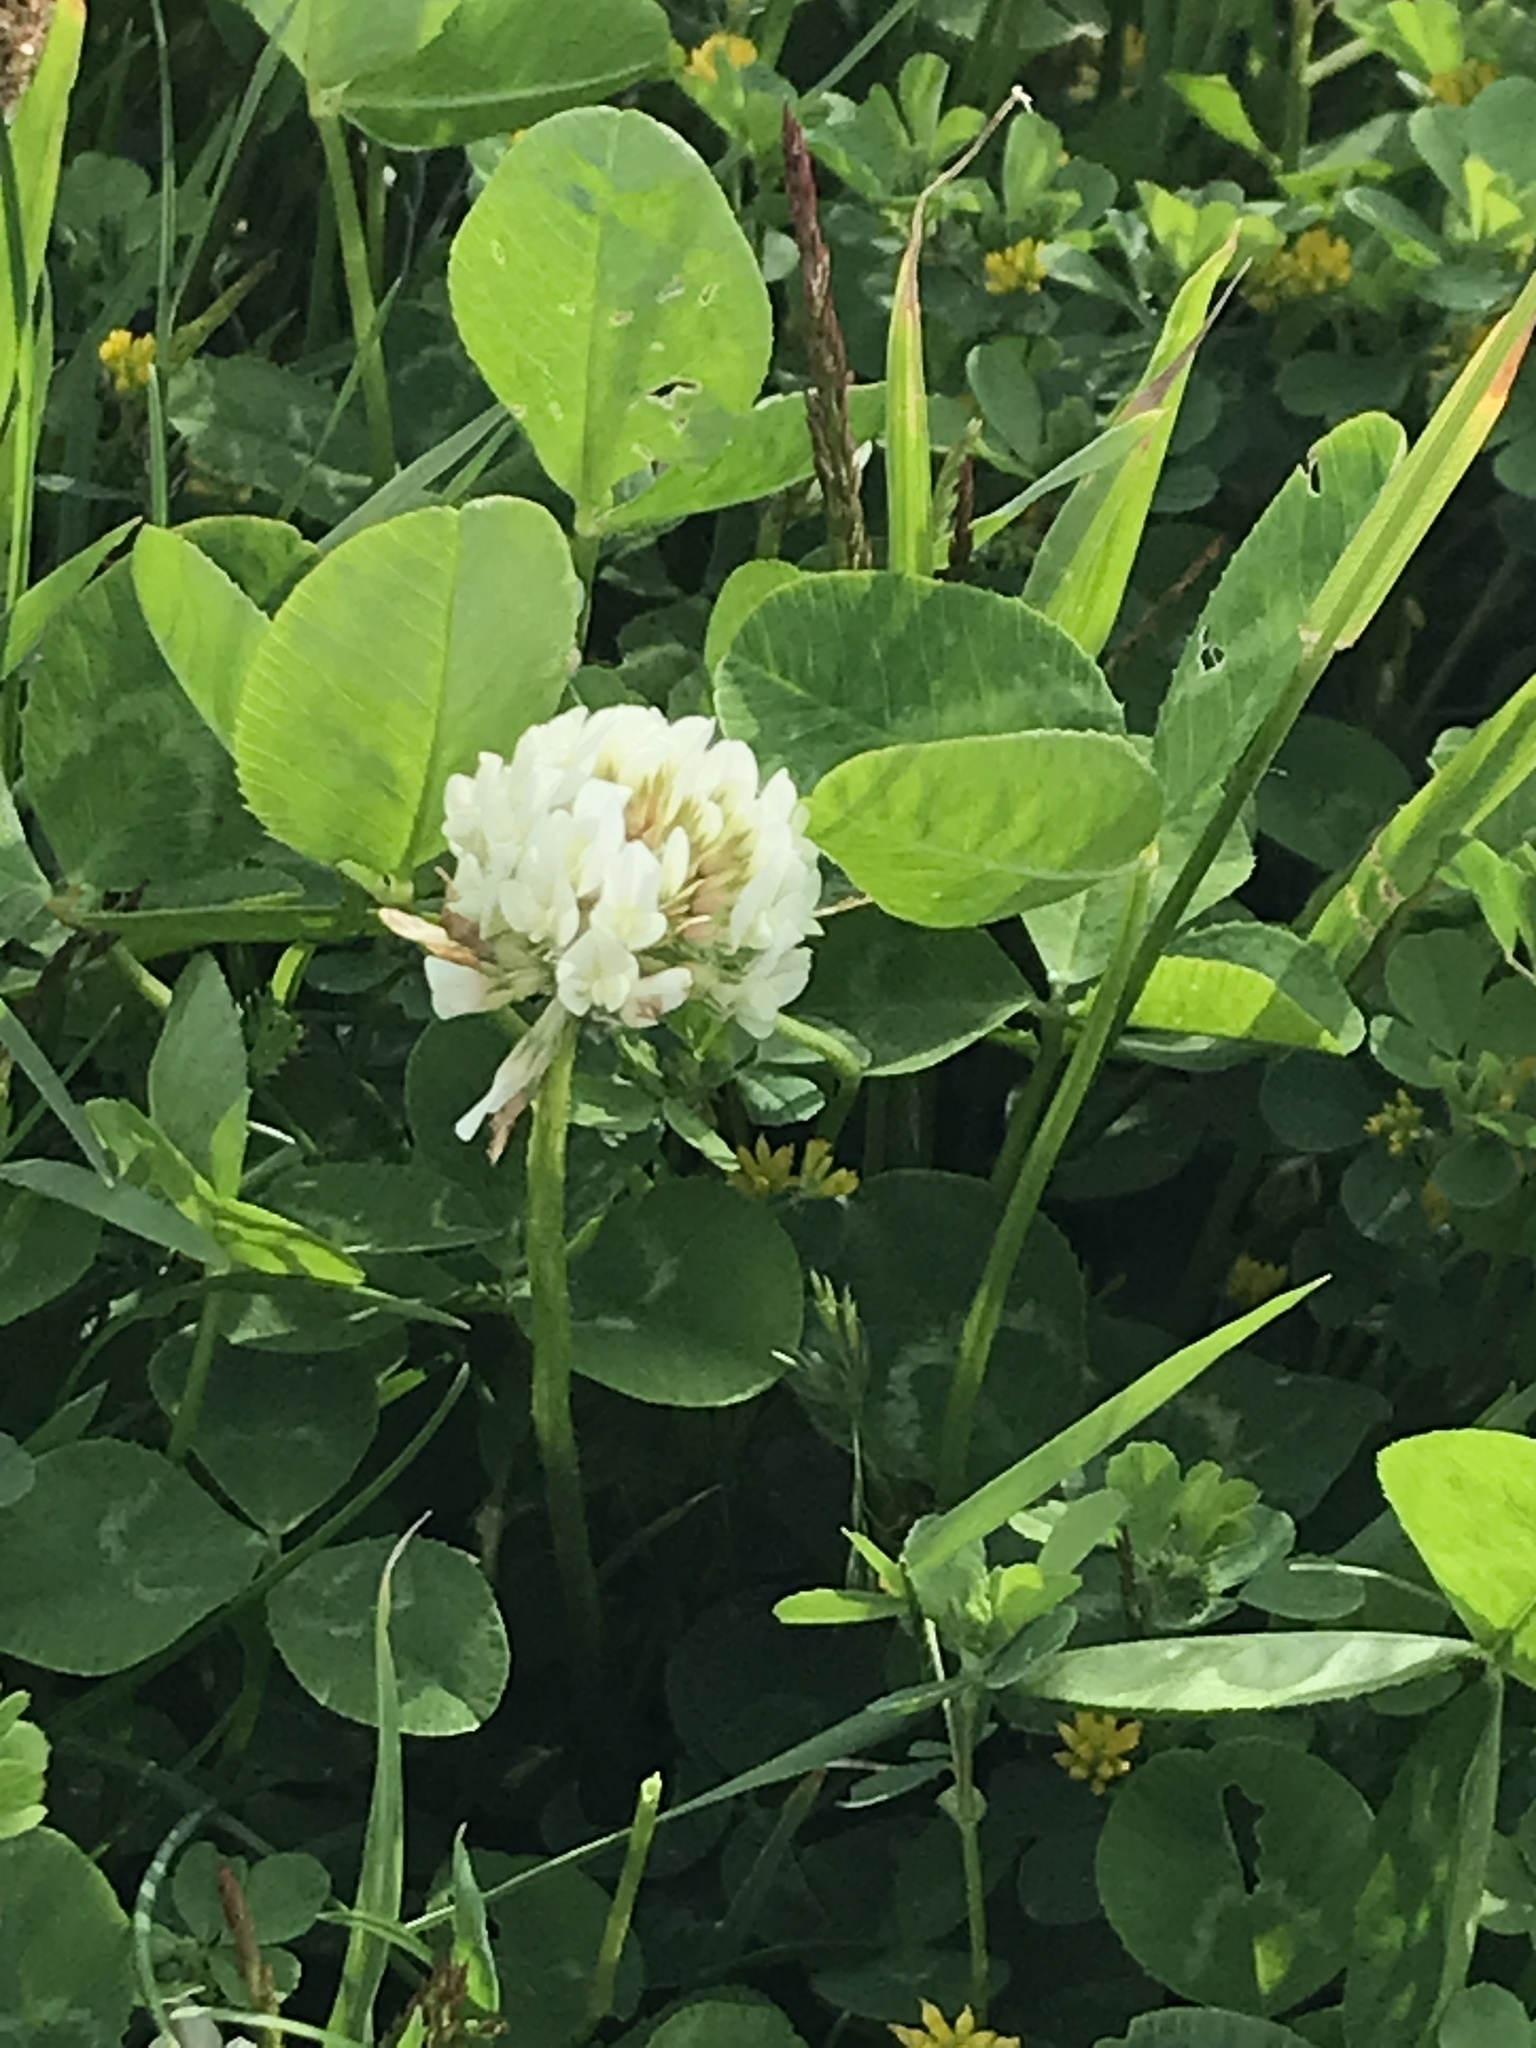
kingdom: Plantae
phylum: Tracheophyta
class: Magnoliopsida
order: Fabales
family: Fabaceae
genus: Trifolium
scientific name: Trifolium repens
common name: White clover
